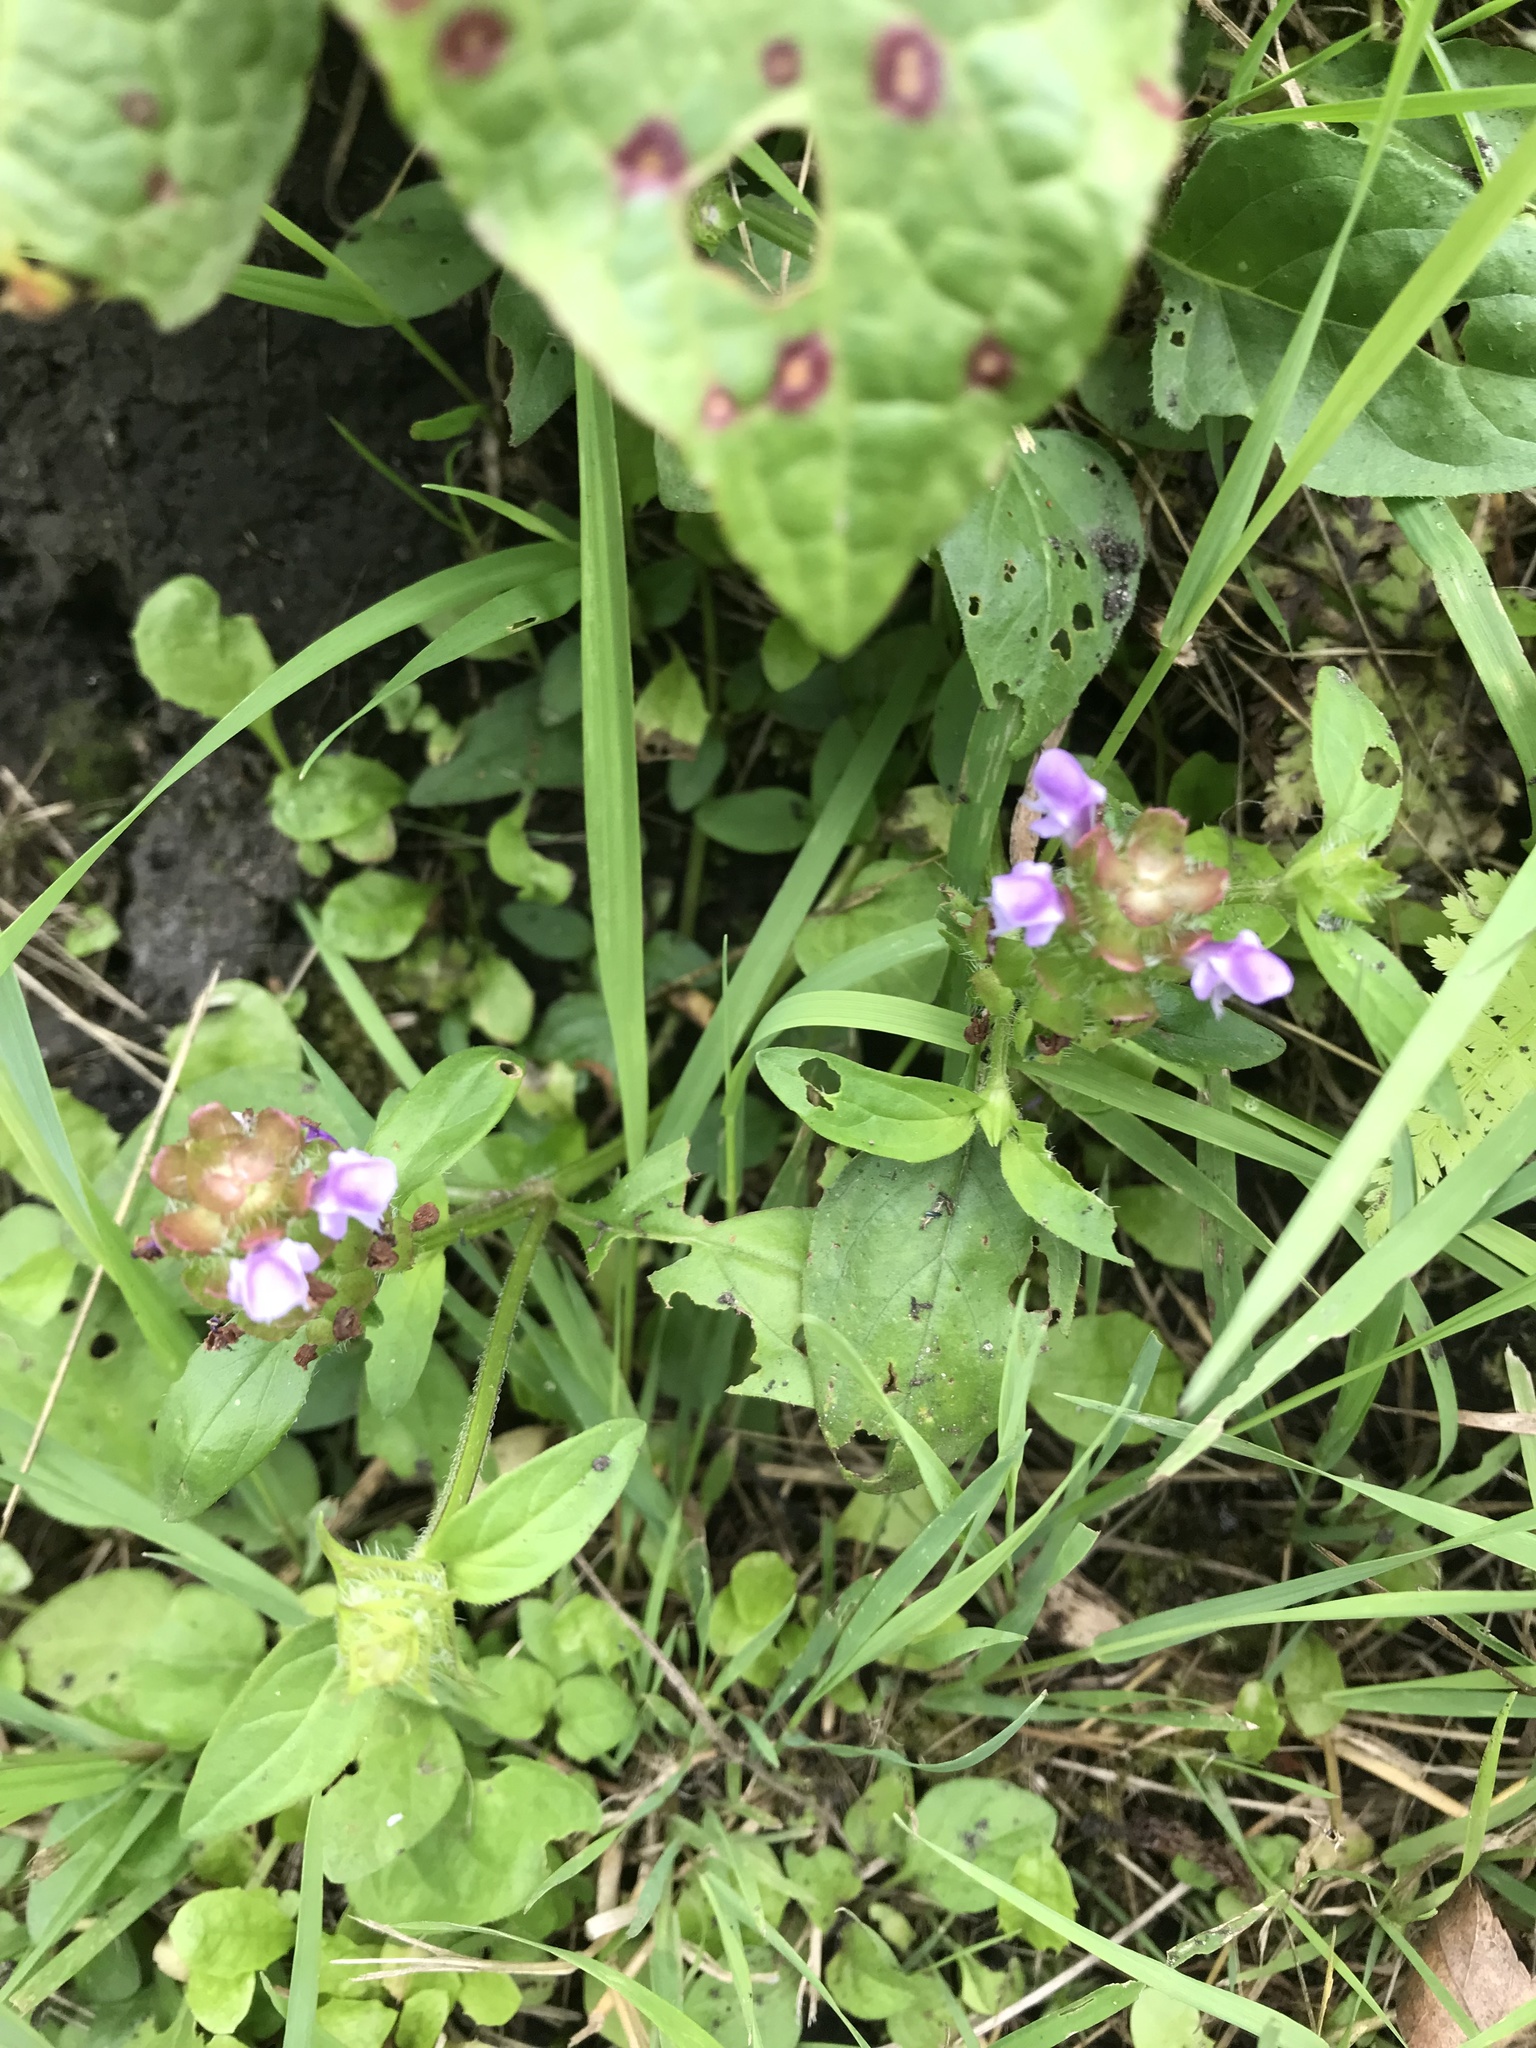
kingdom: Plantae
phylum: Tracheophyta
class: Magnoliopsida
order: Lamiales
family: Lamiaceae
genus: Prunella
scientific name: Prunella vulgaris
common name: Heal-all
